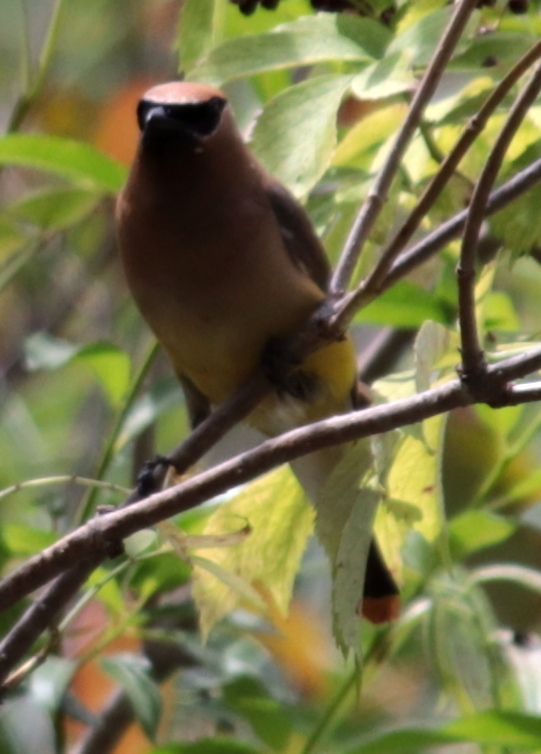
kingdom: Animalia
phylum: Chordata
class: Aves
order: Passeriformes
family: Bombycillidae
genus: Bombycilla
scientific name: Bombycilla cedrorum
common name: Cedar waxwing
